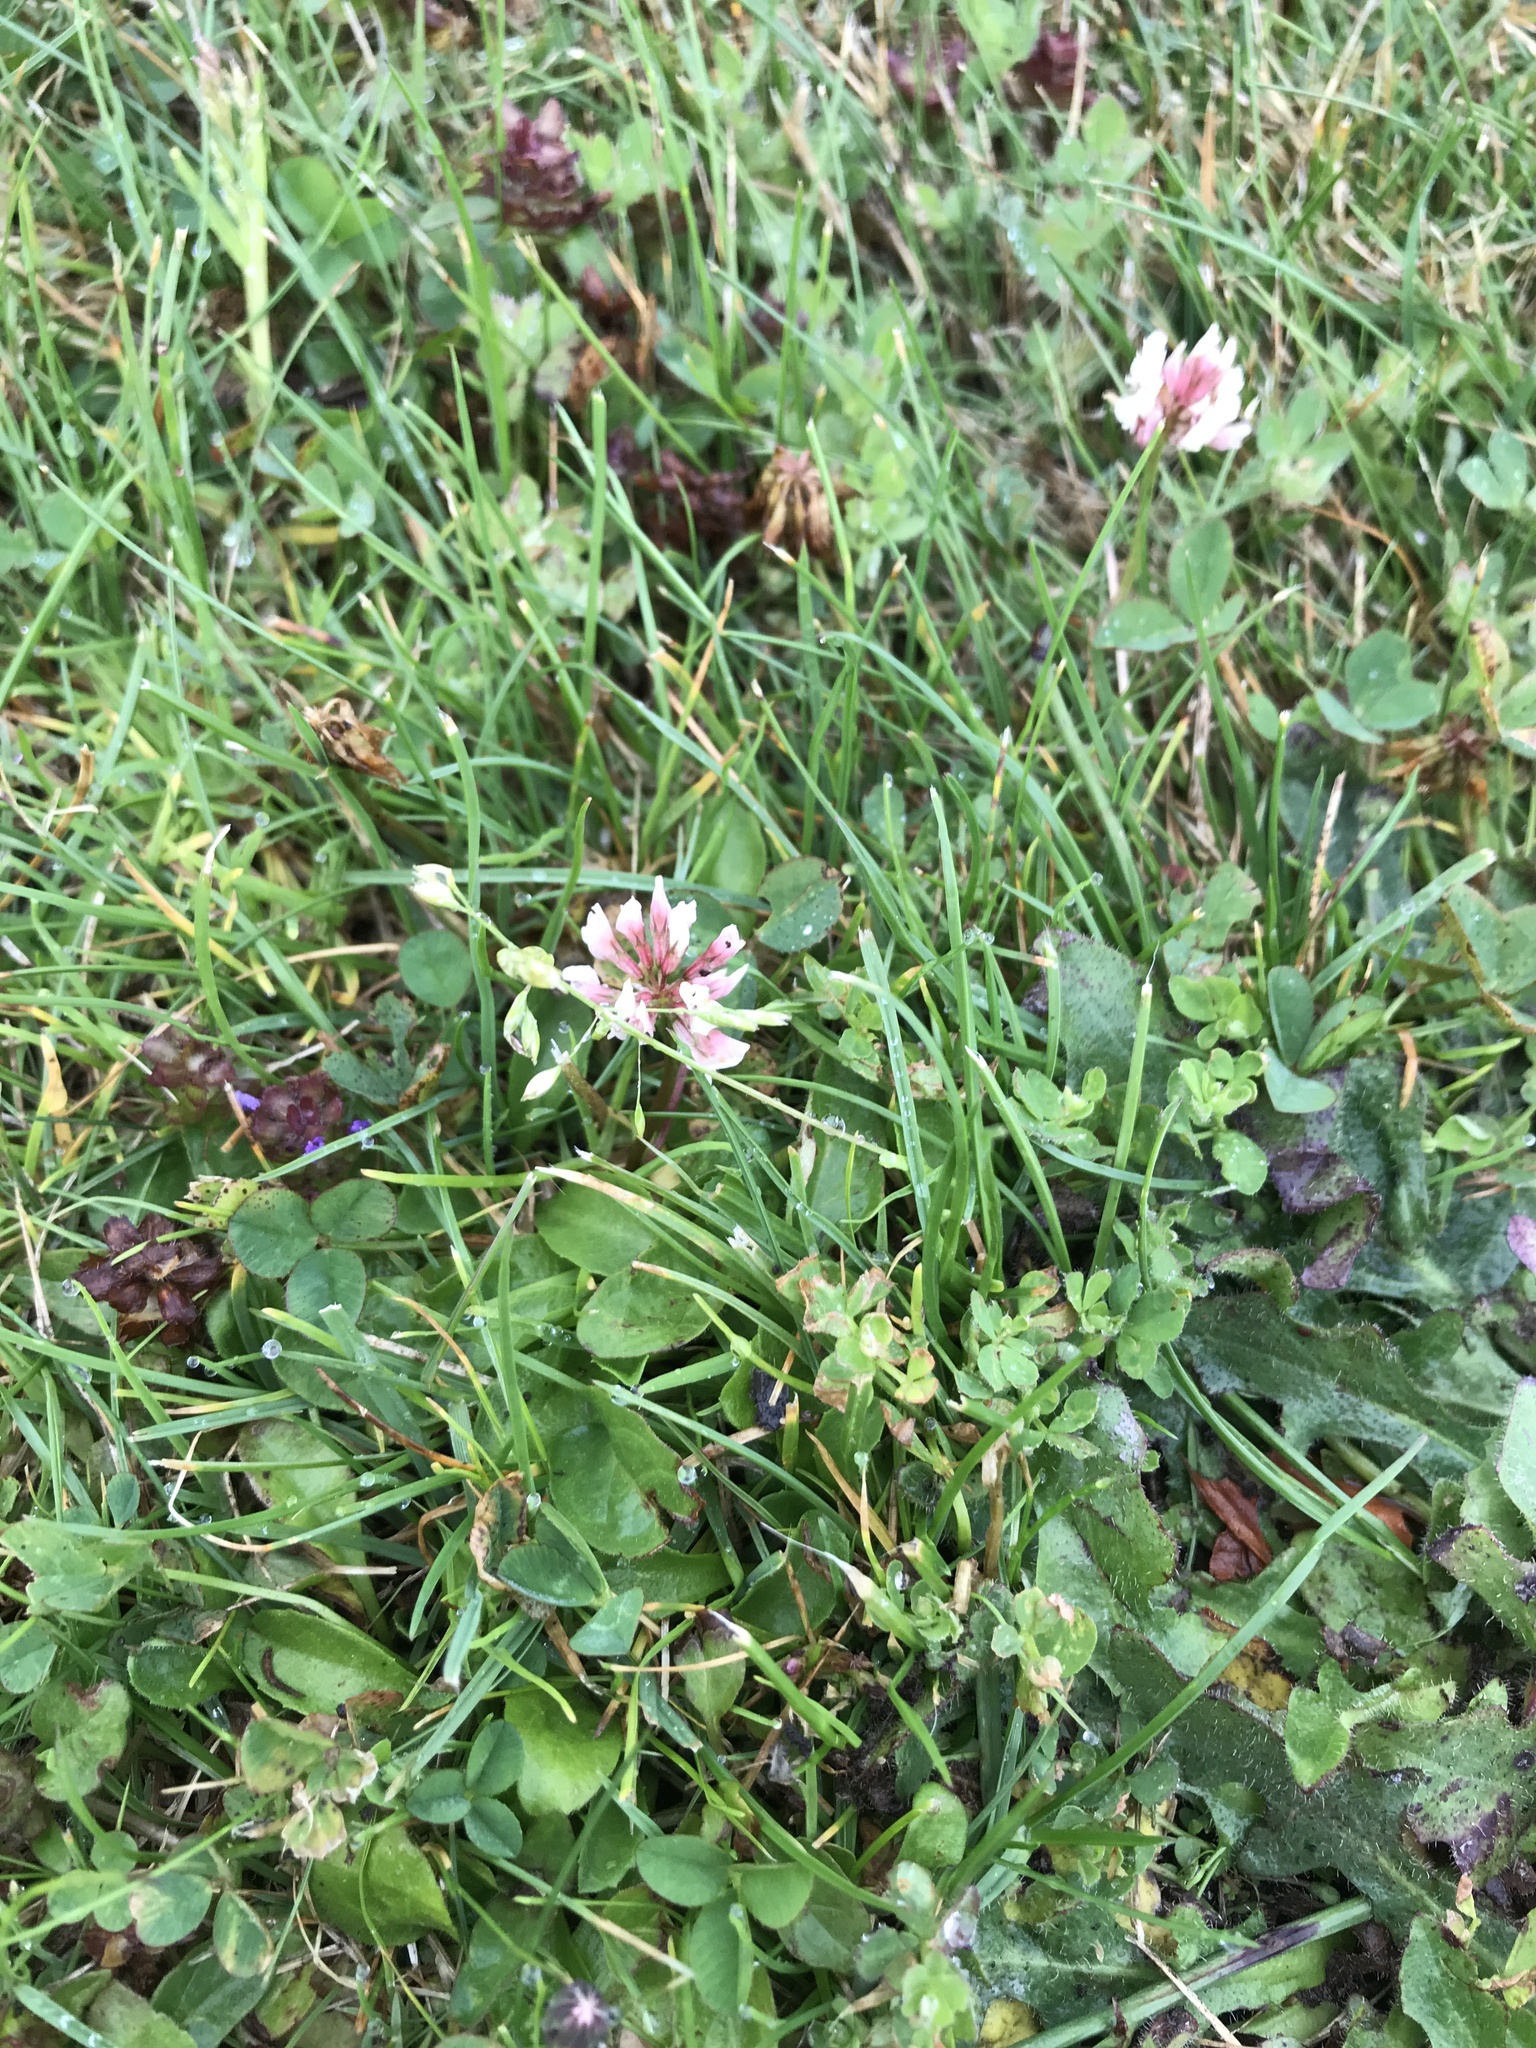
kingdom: Plantae
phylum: Tracheophyta
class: Magnoliopsida
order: Fabales
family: Fabaceae
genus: Trifolium
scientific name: Trifolium repens
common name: White clover
